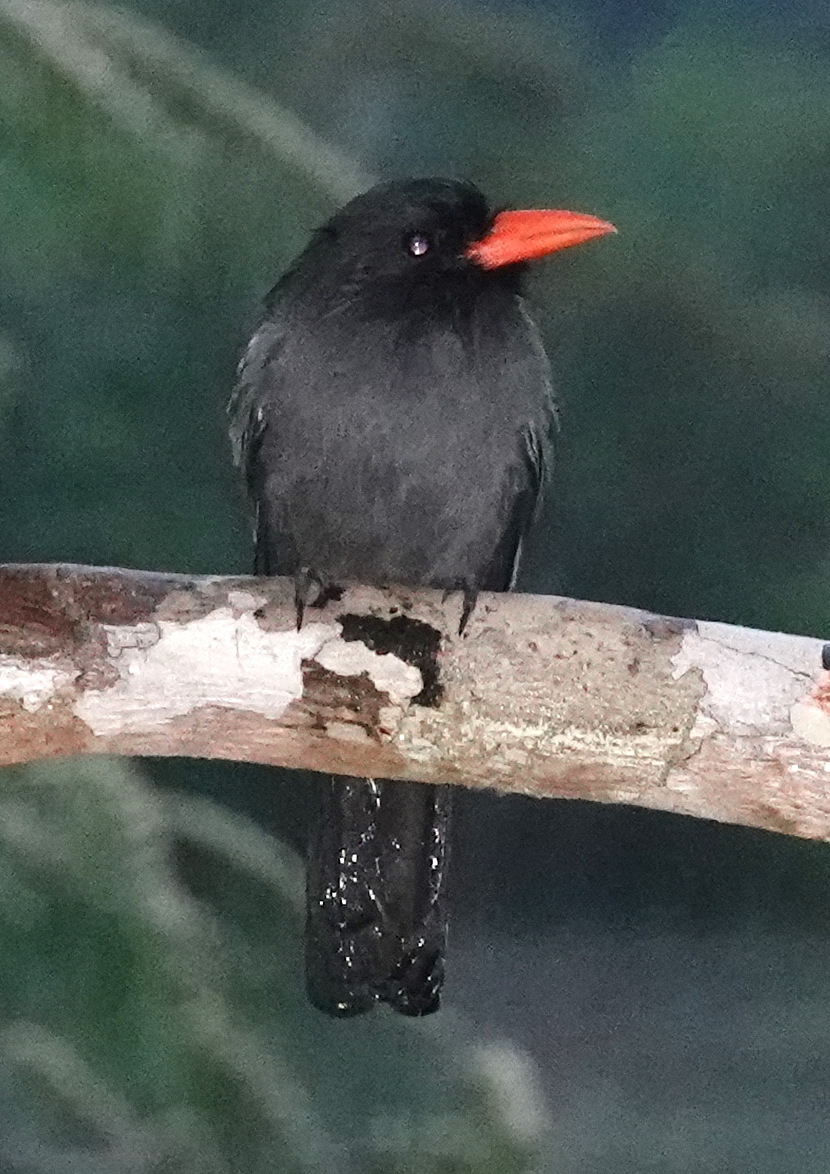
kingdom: Animalia
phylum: Chordata
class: Aves
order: Piciformes
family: Bucconidae
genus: Monasa
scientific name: Monasa nigrifrons
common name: Black-fronted nunbird
